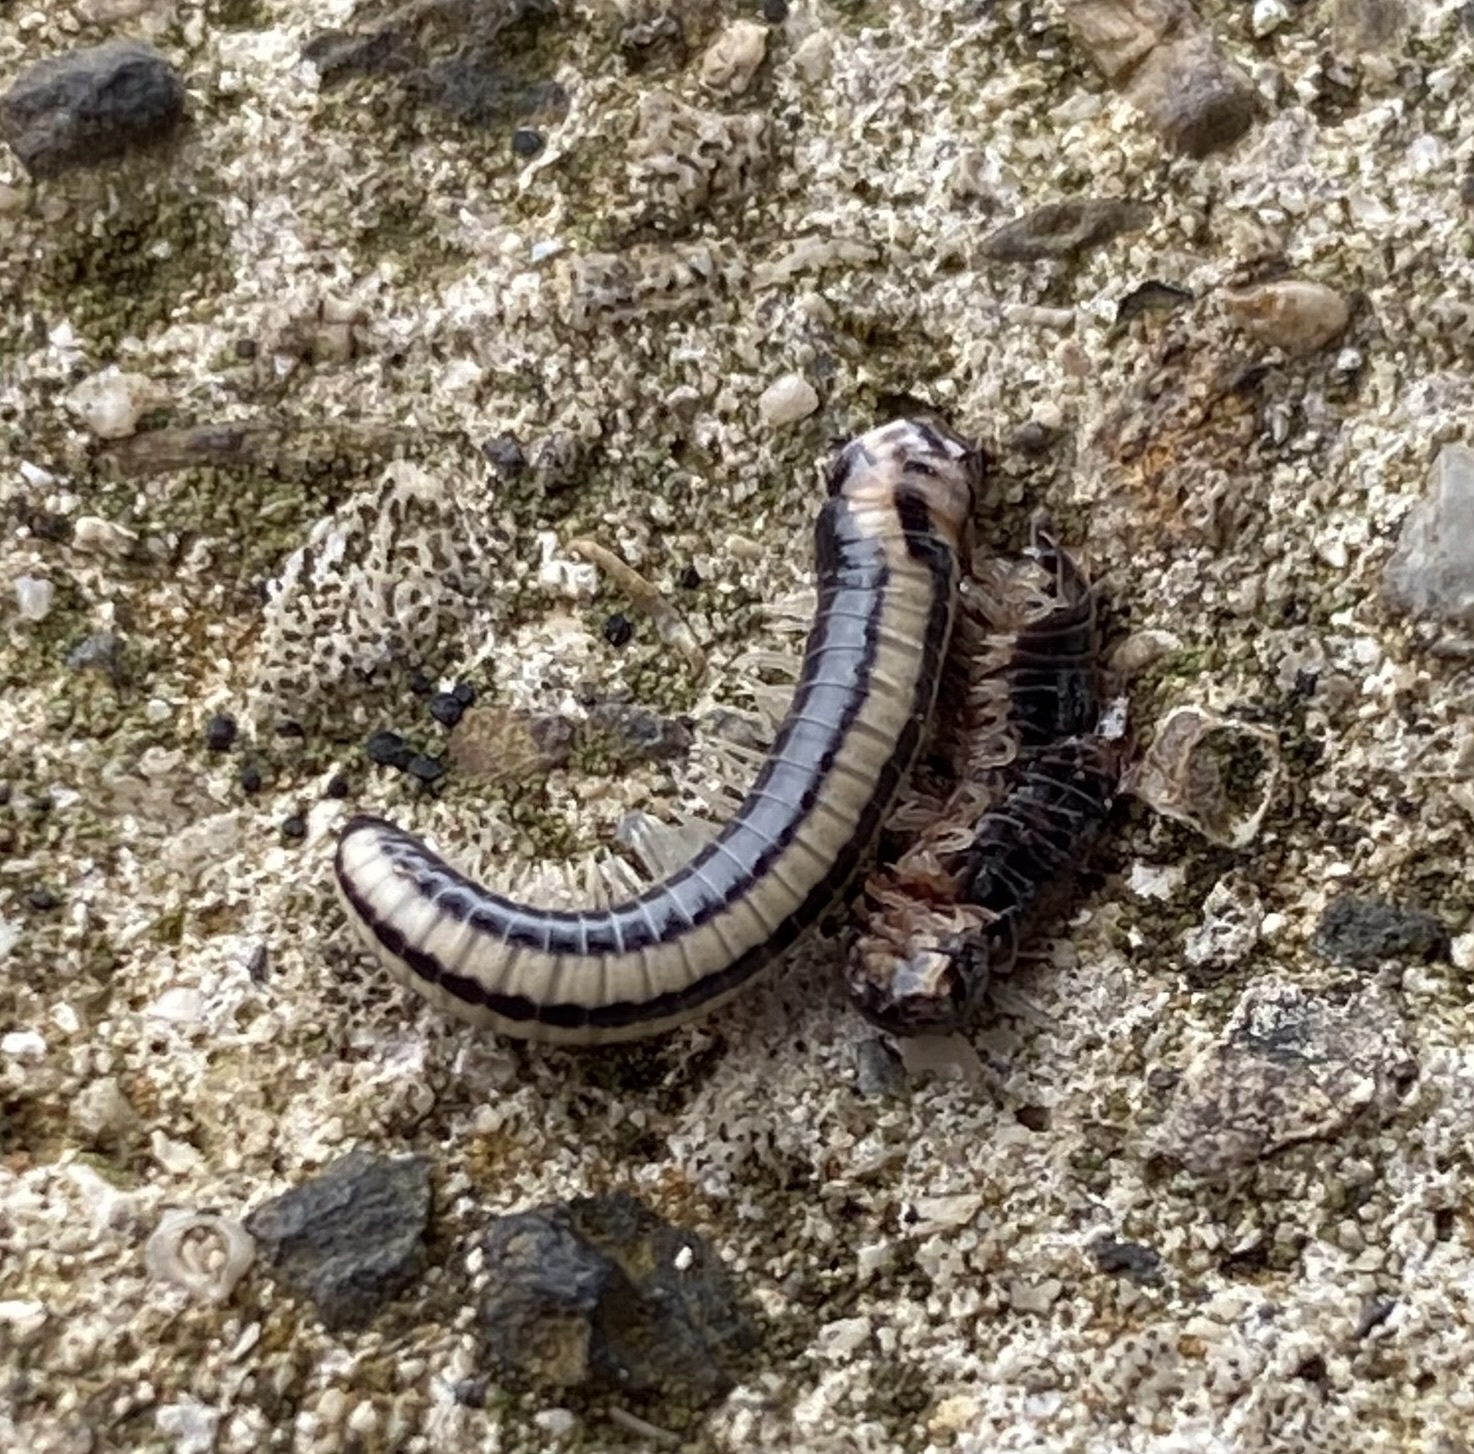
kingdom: Animalia
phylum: Arthropoda
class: Diplopoda
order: Spirobolida
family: Spirobolellidae
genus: Spirobolellus
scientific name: Spirobolellus immigrans
